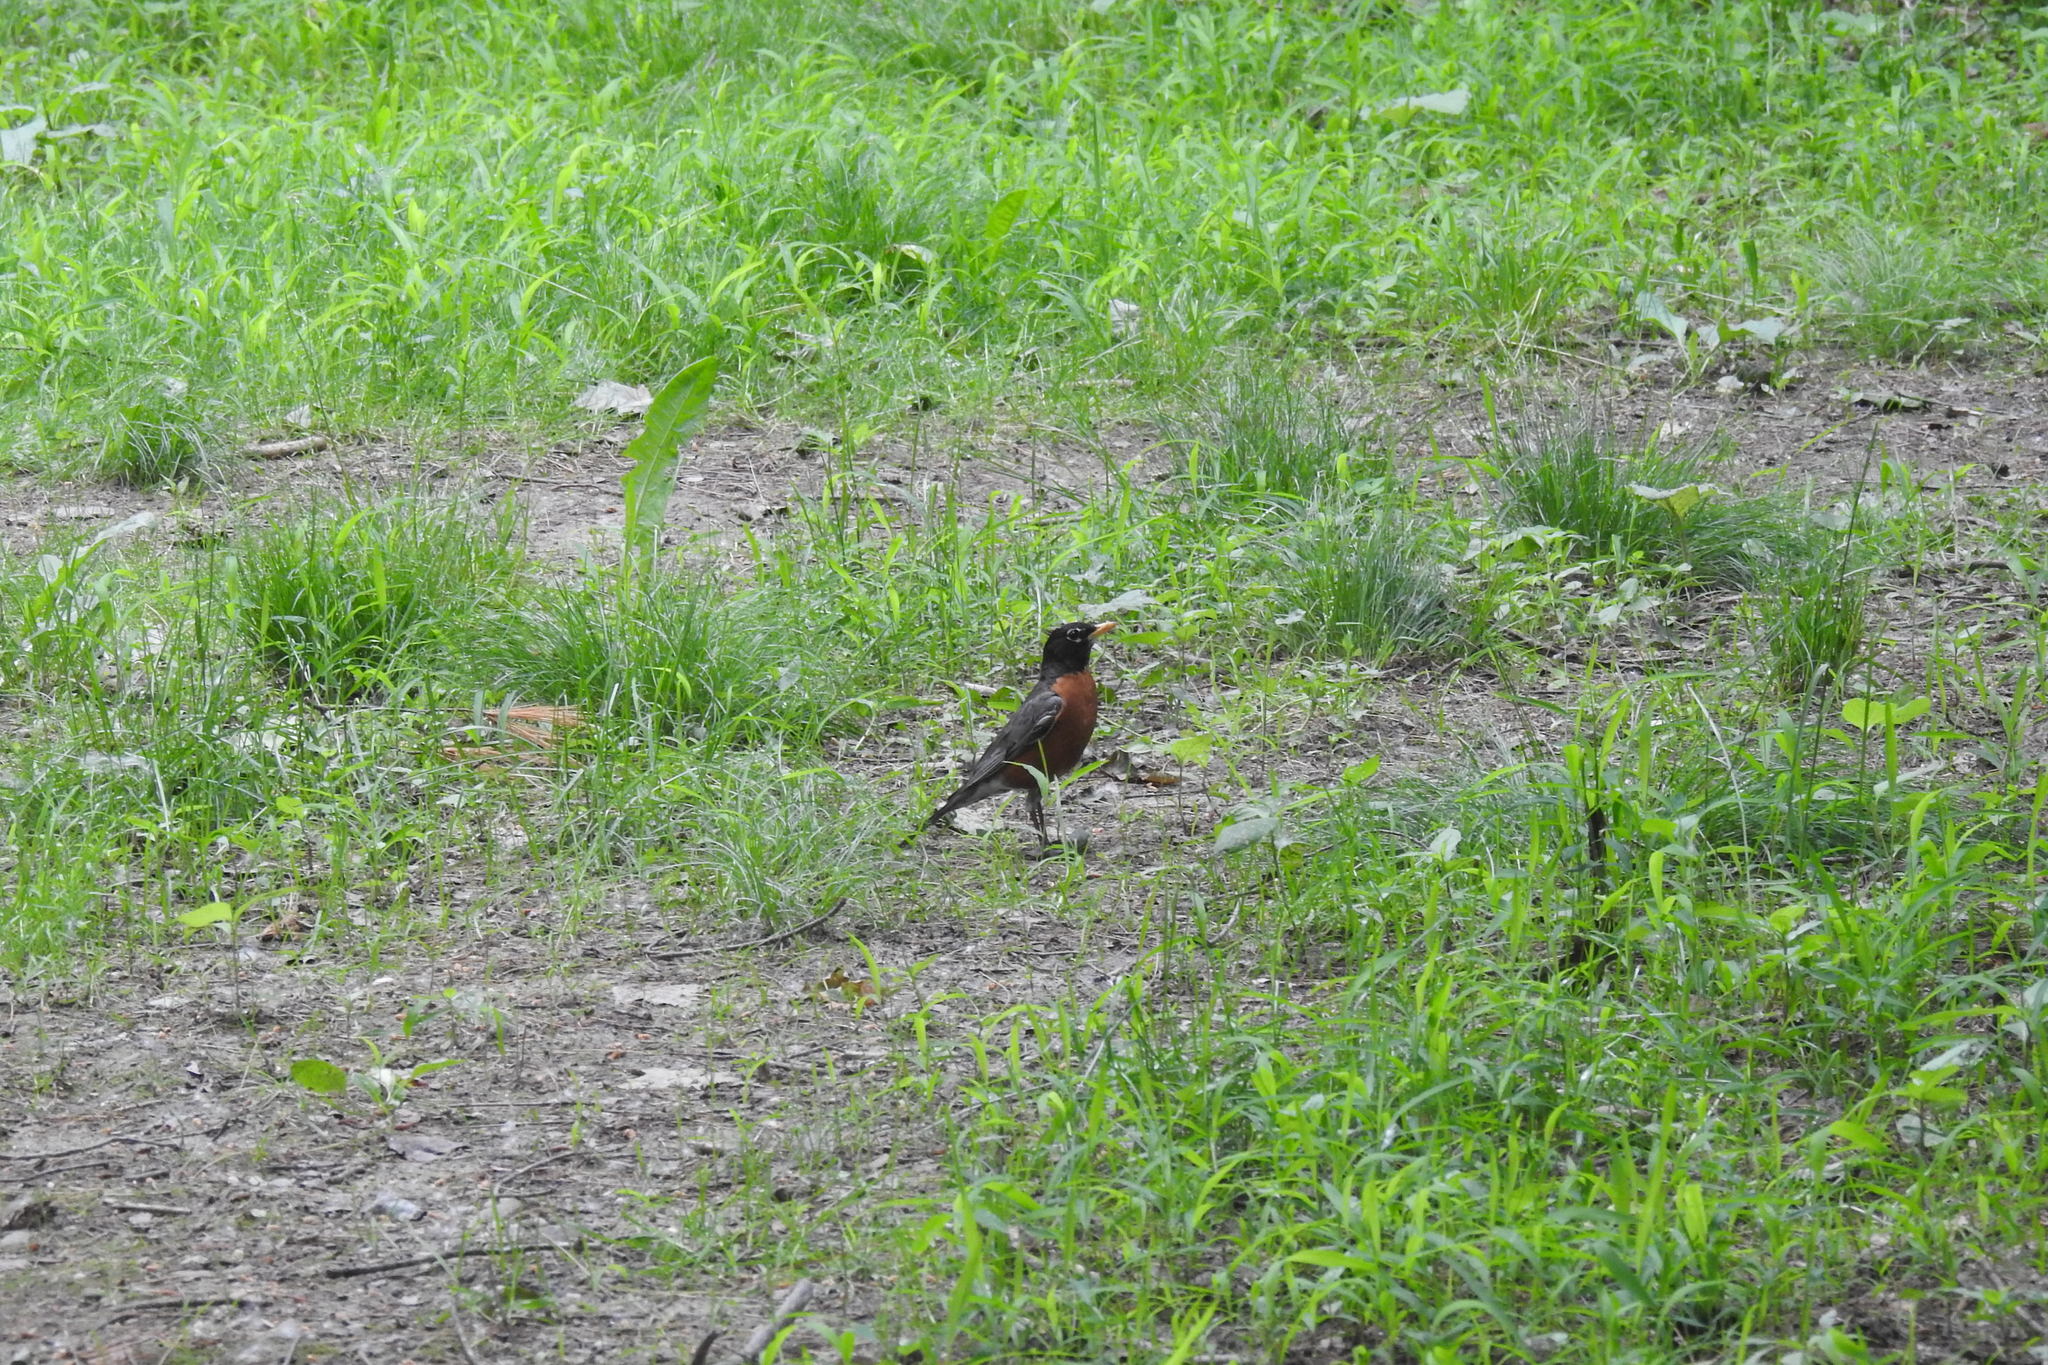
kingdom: Animalia
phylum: Chordata
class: Aves
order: Passeriformes
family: Turdidae
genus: Turdus
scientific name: Turdus migratorius
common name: American robin
